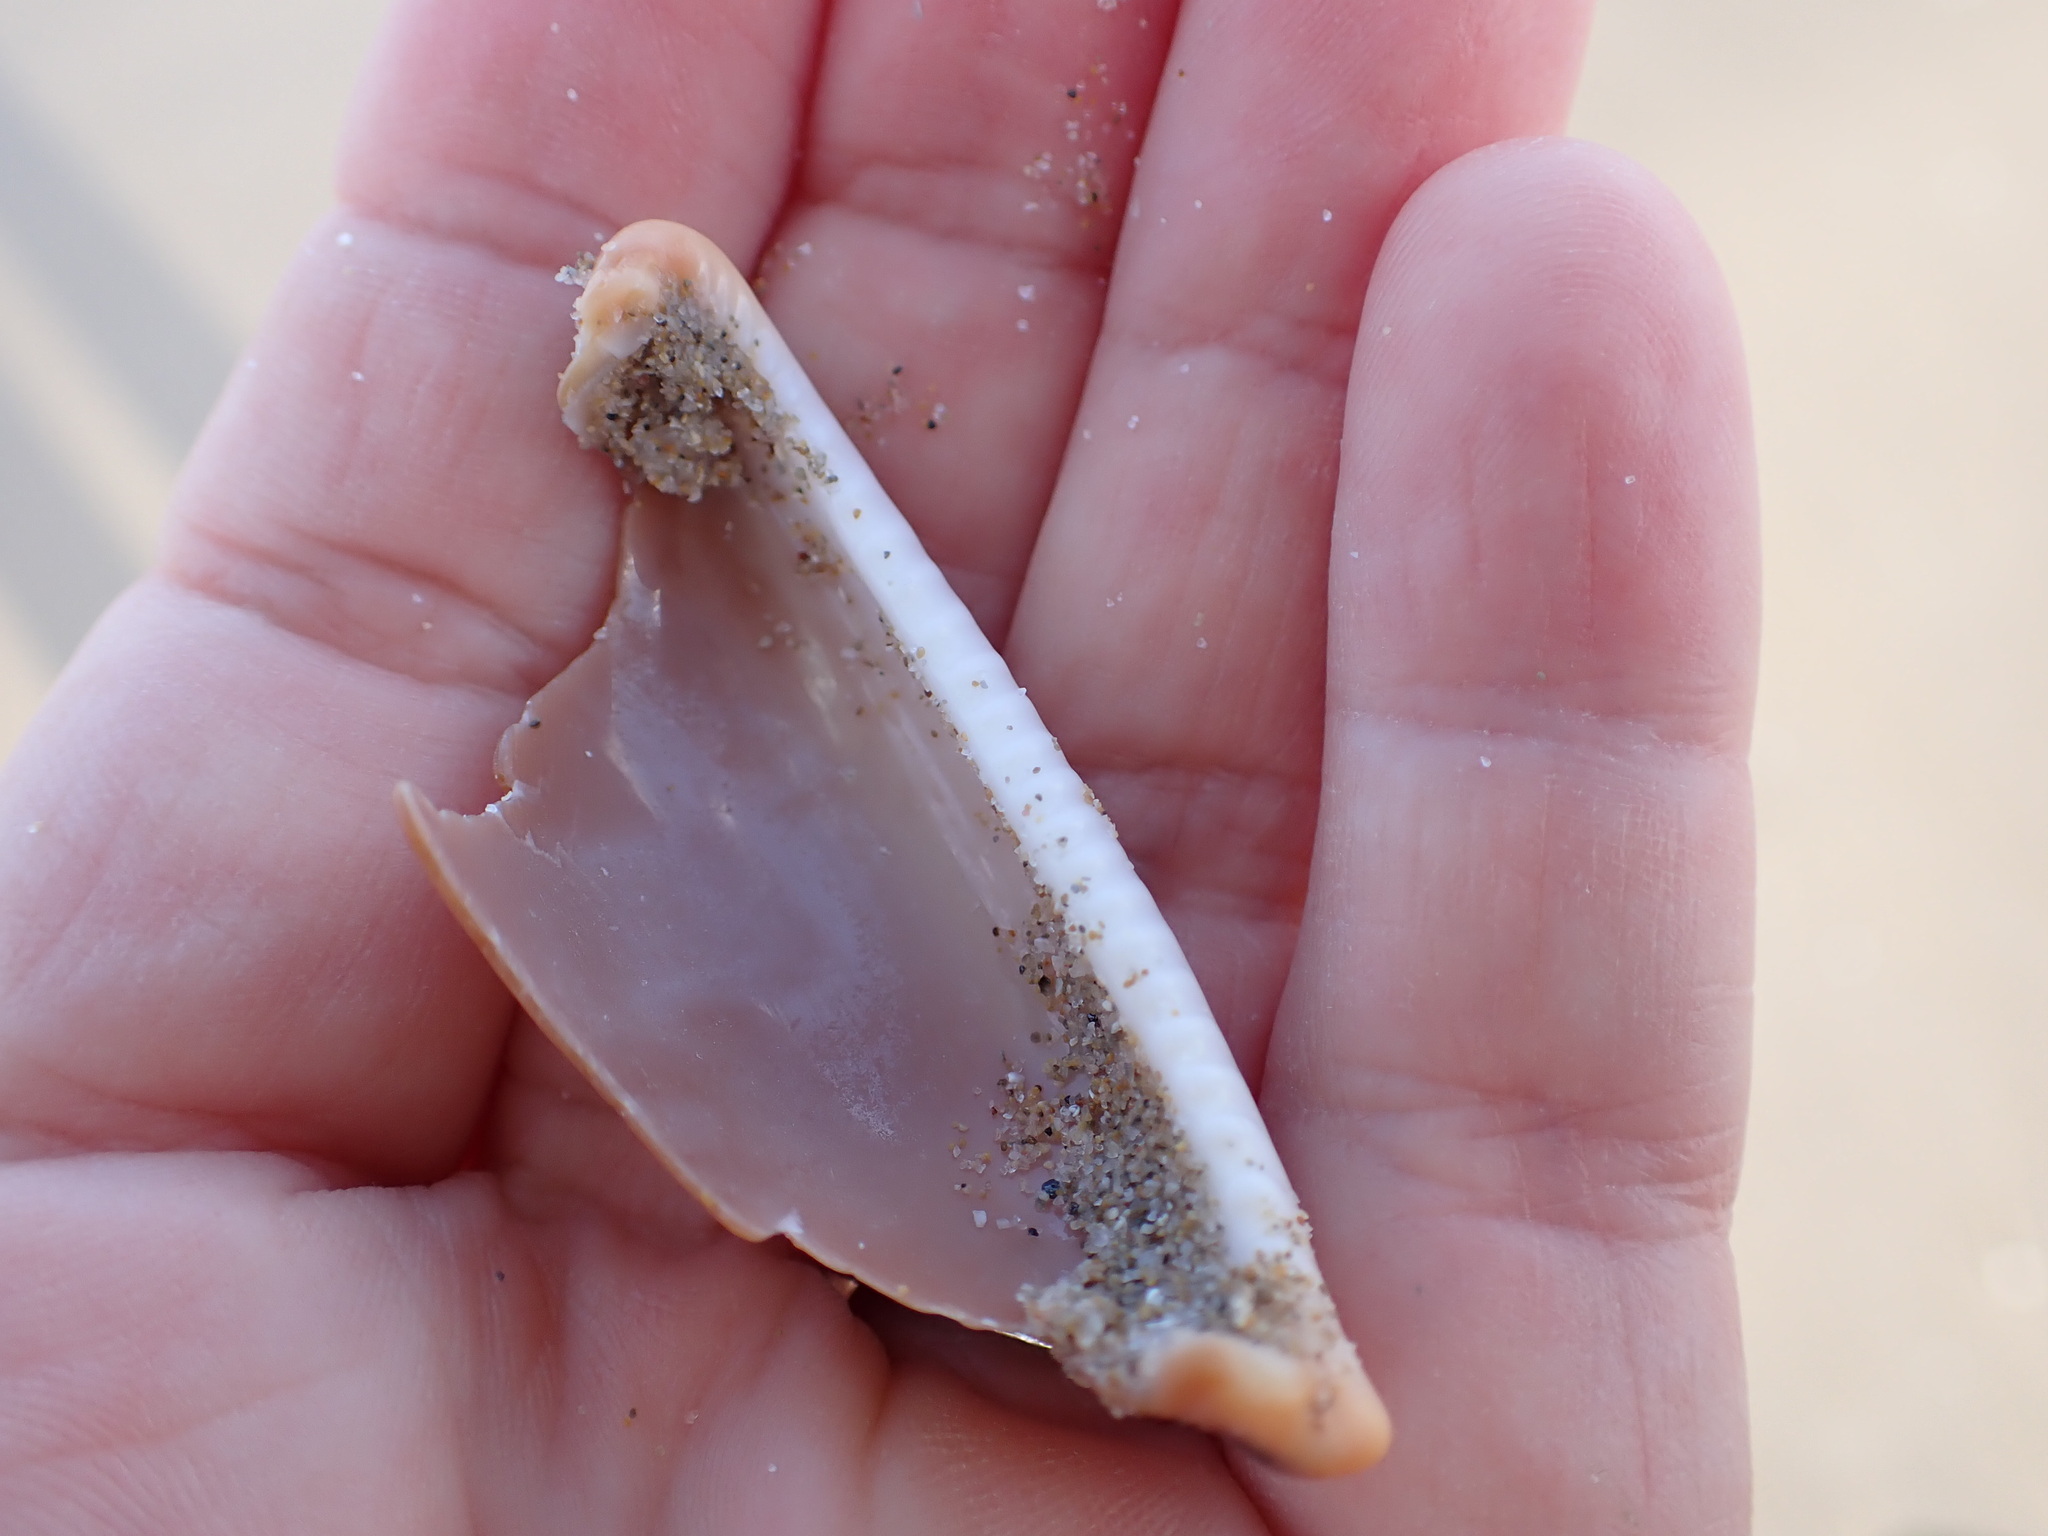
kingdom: Animalia
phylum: Mollusca
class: Gastropoda
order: Littorinimorpha
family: Cypraeidae
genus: Luria
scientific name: Luria lurida
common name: Brown cowry
